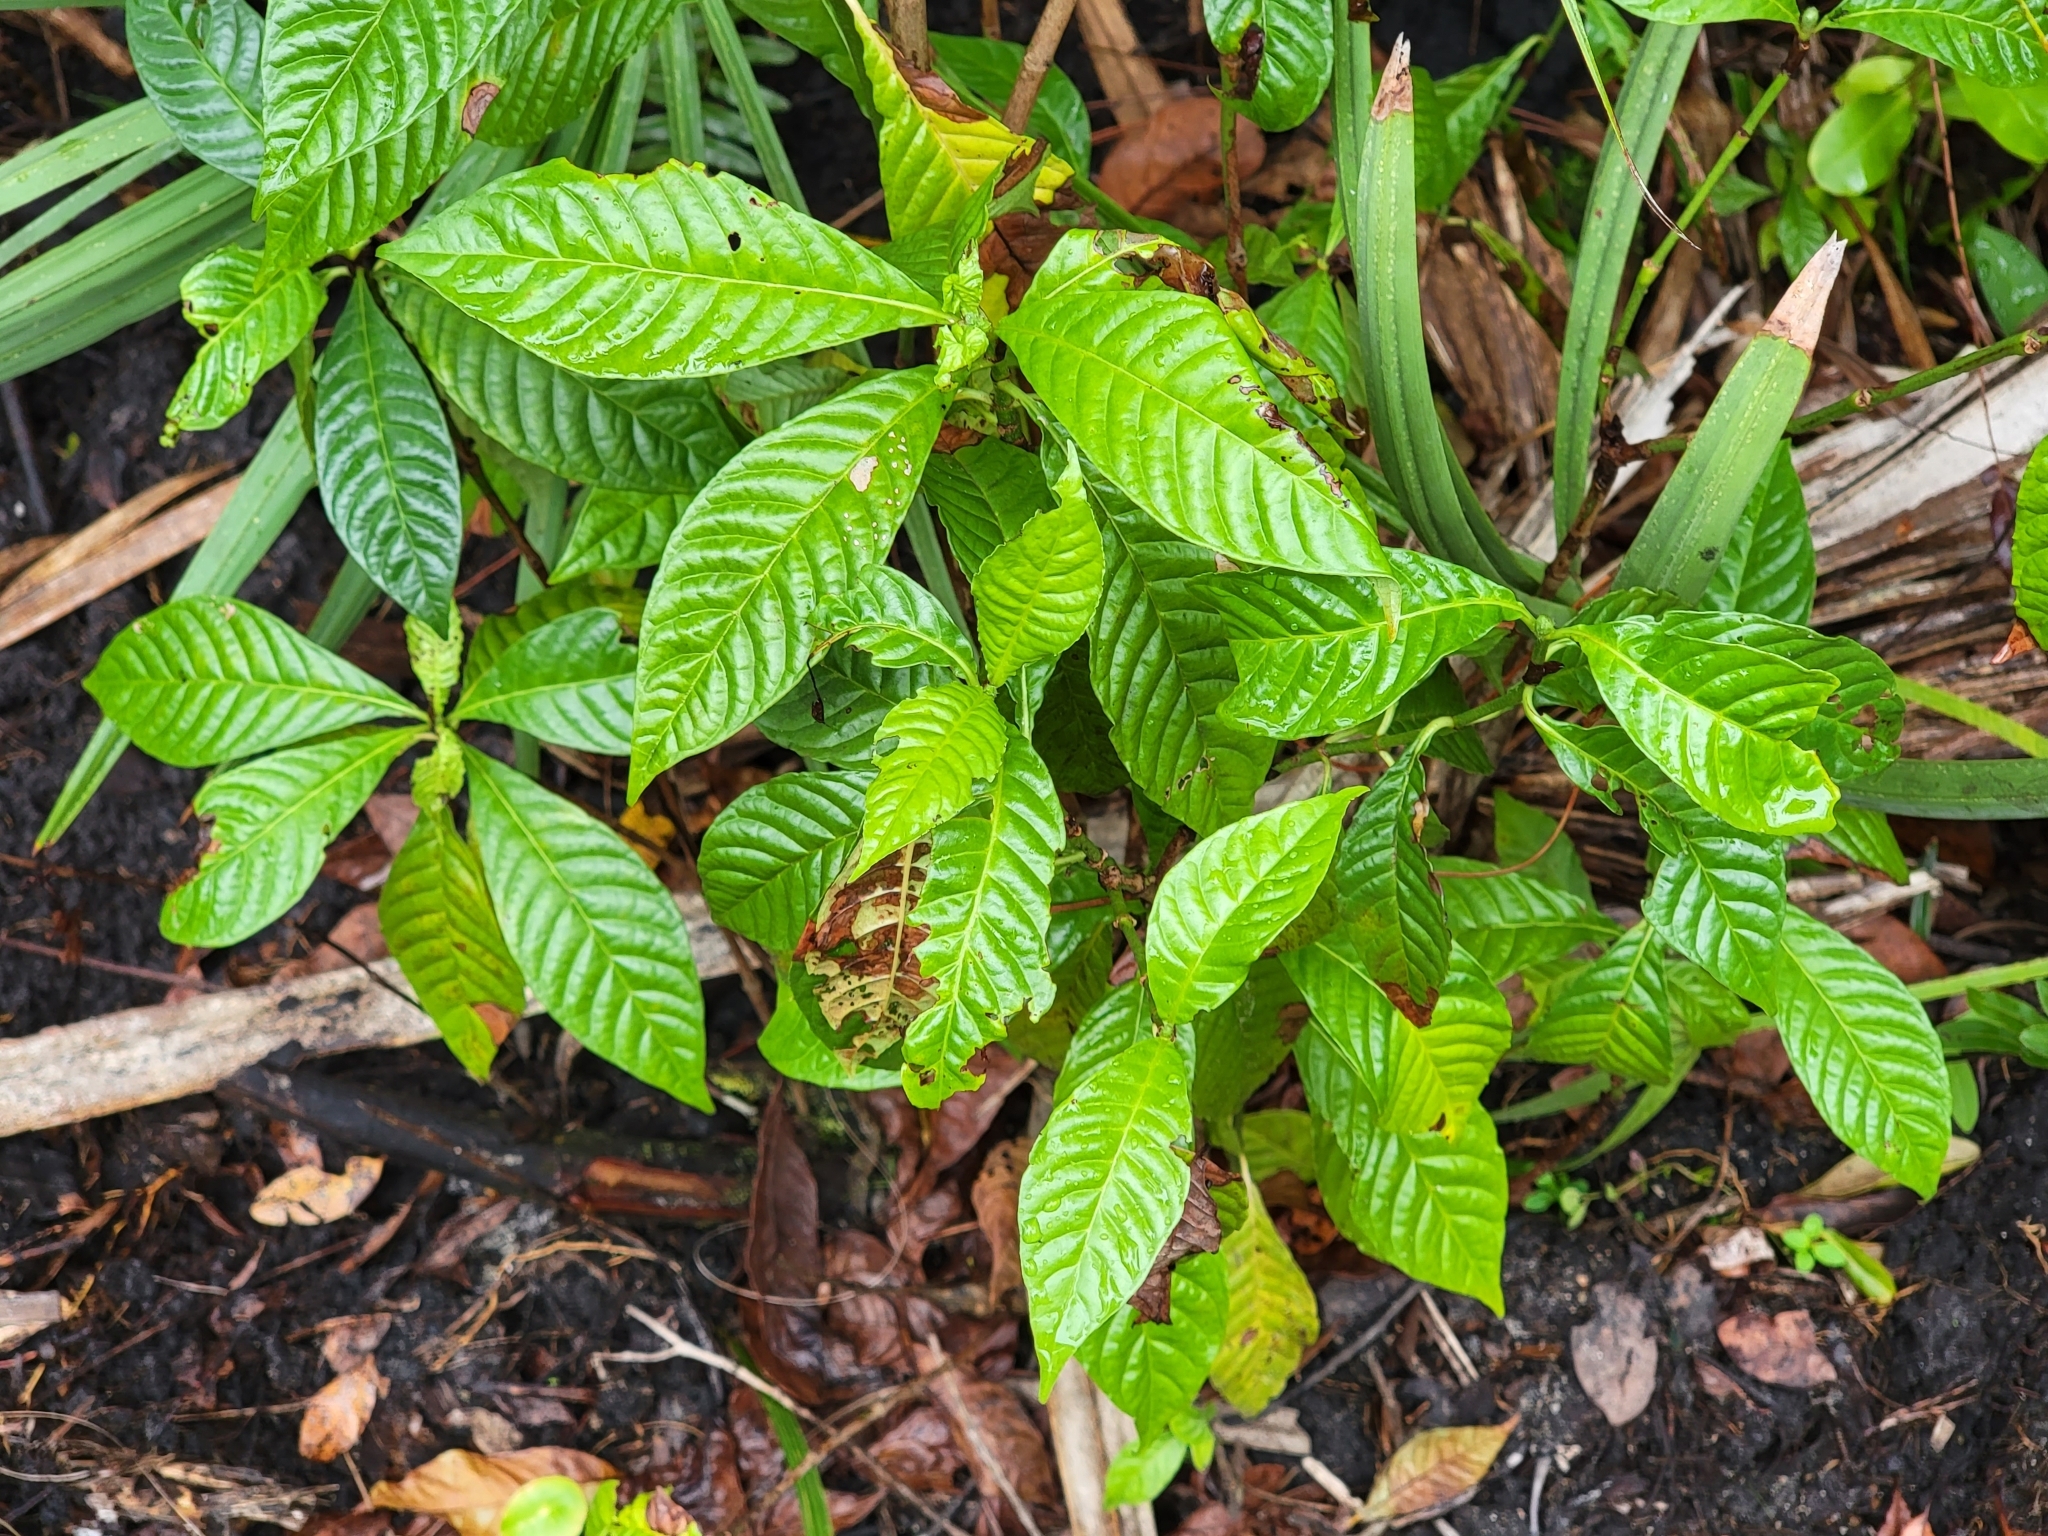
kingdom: Plantae
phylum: Tracheophyta
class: Magnoliopsida
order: Gentianales
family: Rubiaceae
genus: Psychotria
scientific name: Psychotria nervosa
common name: Bastard cankerberry
